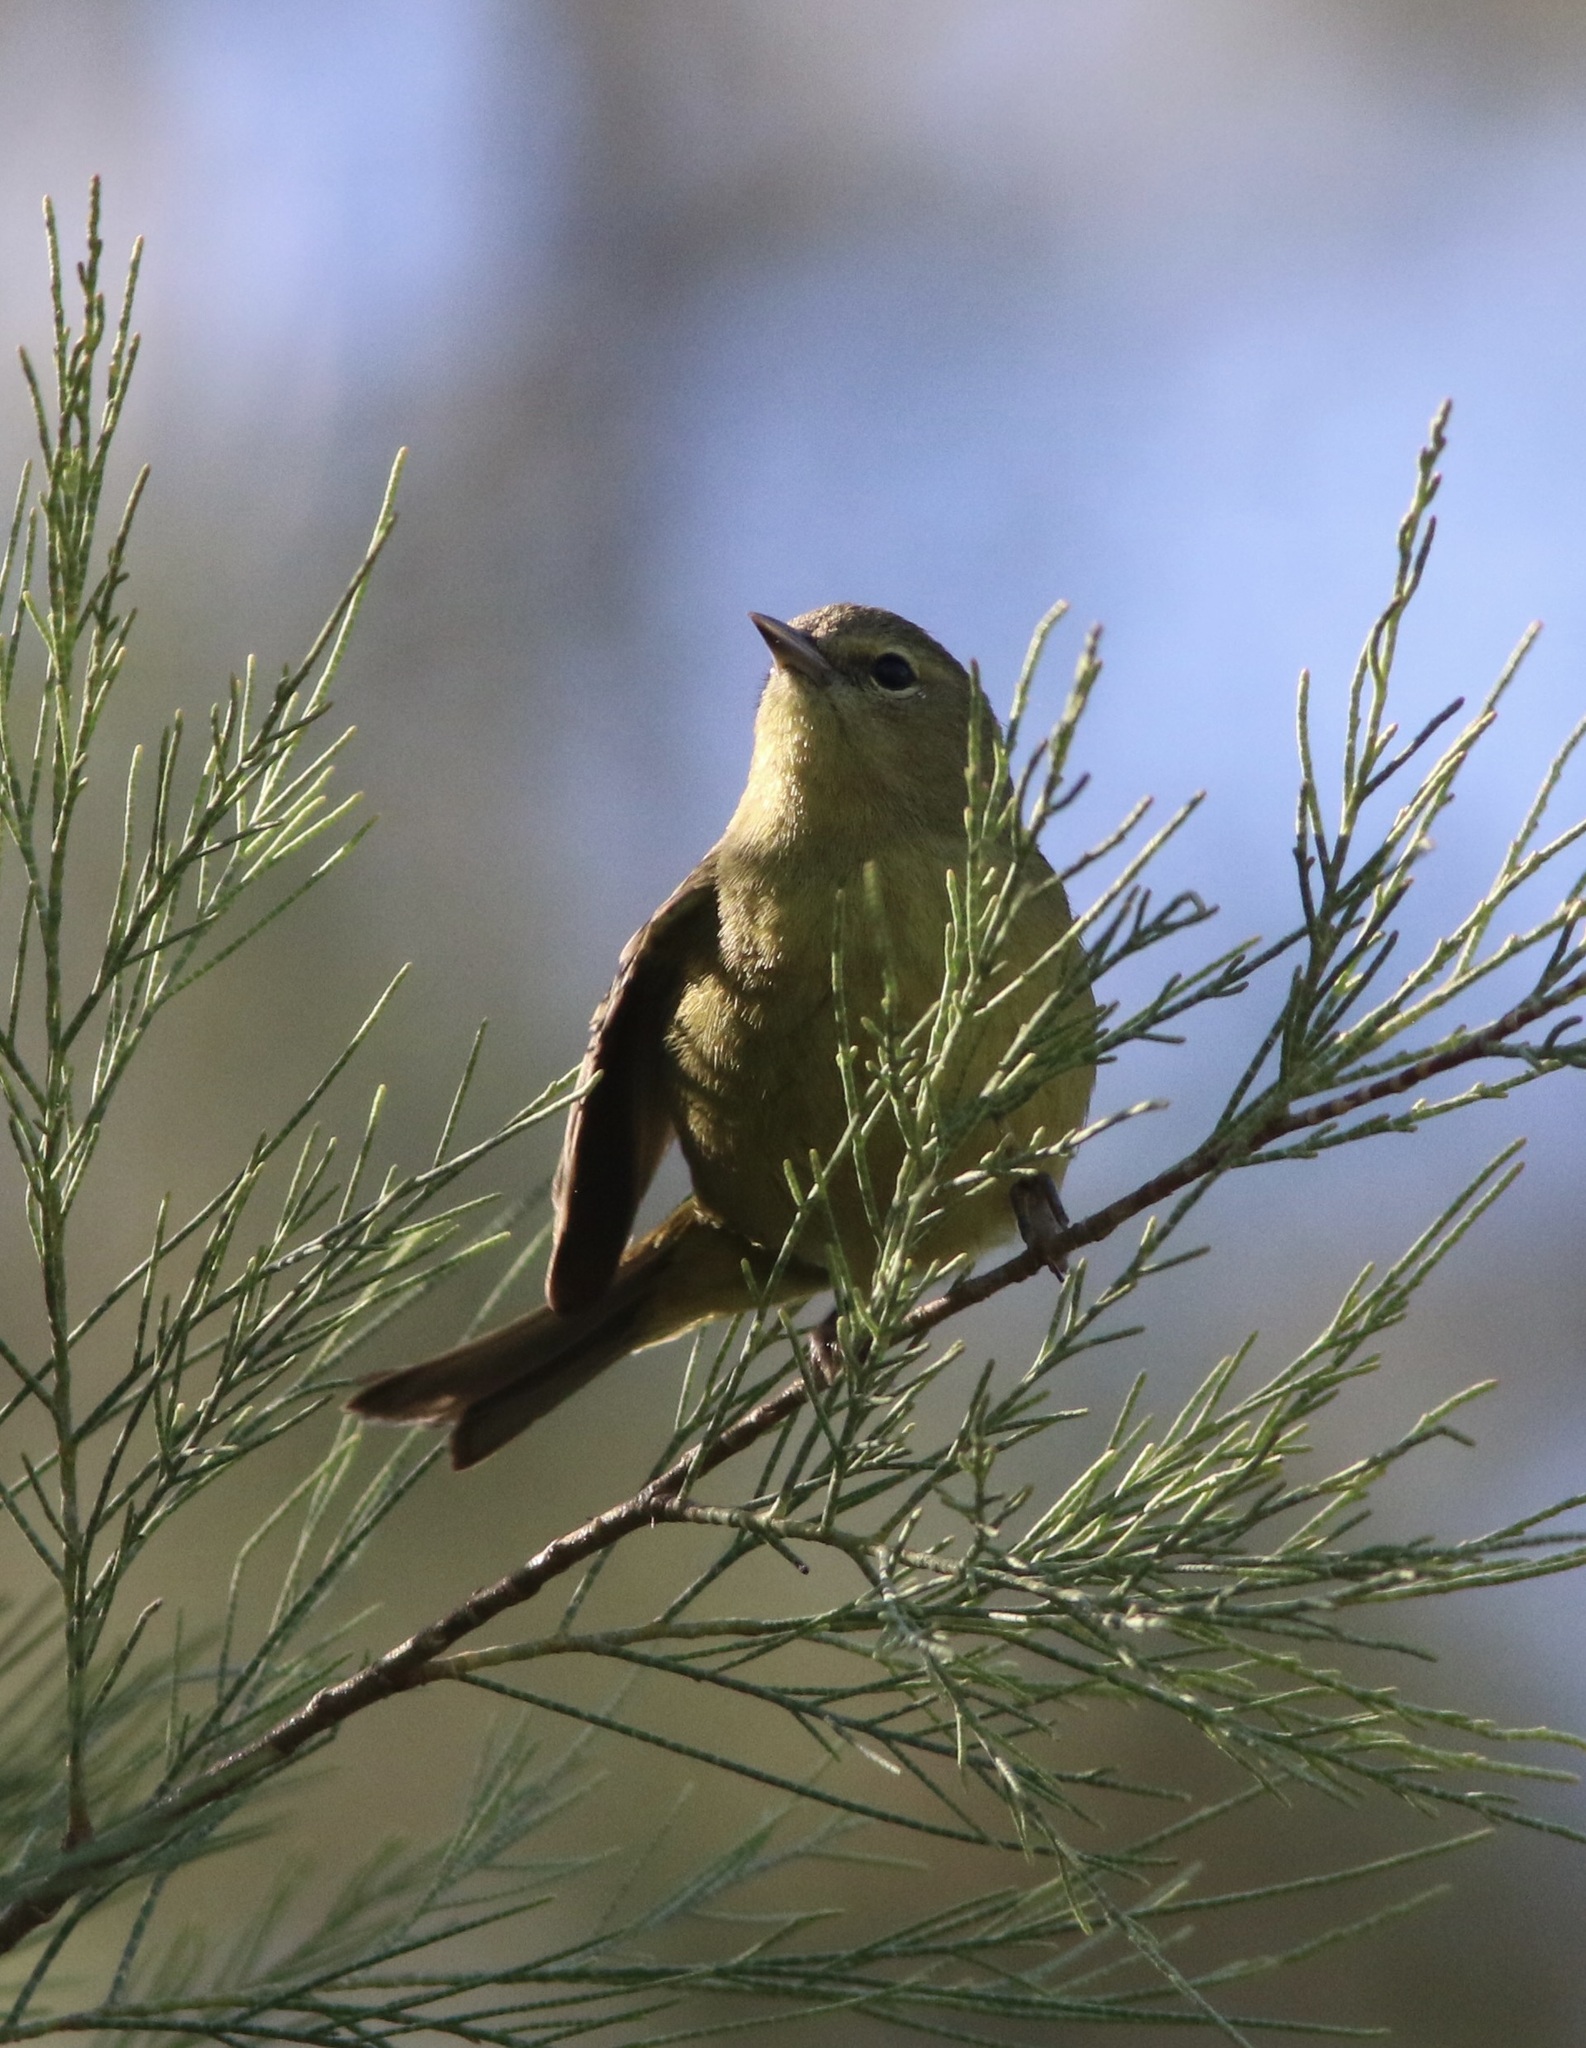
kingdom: Animalia
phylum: Chordata
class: Aves
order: Passeriformes
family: Parulidae
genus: Leiothlypis
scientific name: Leiothlypis celata
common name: Orange-crowned warbler
